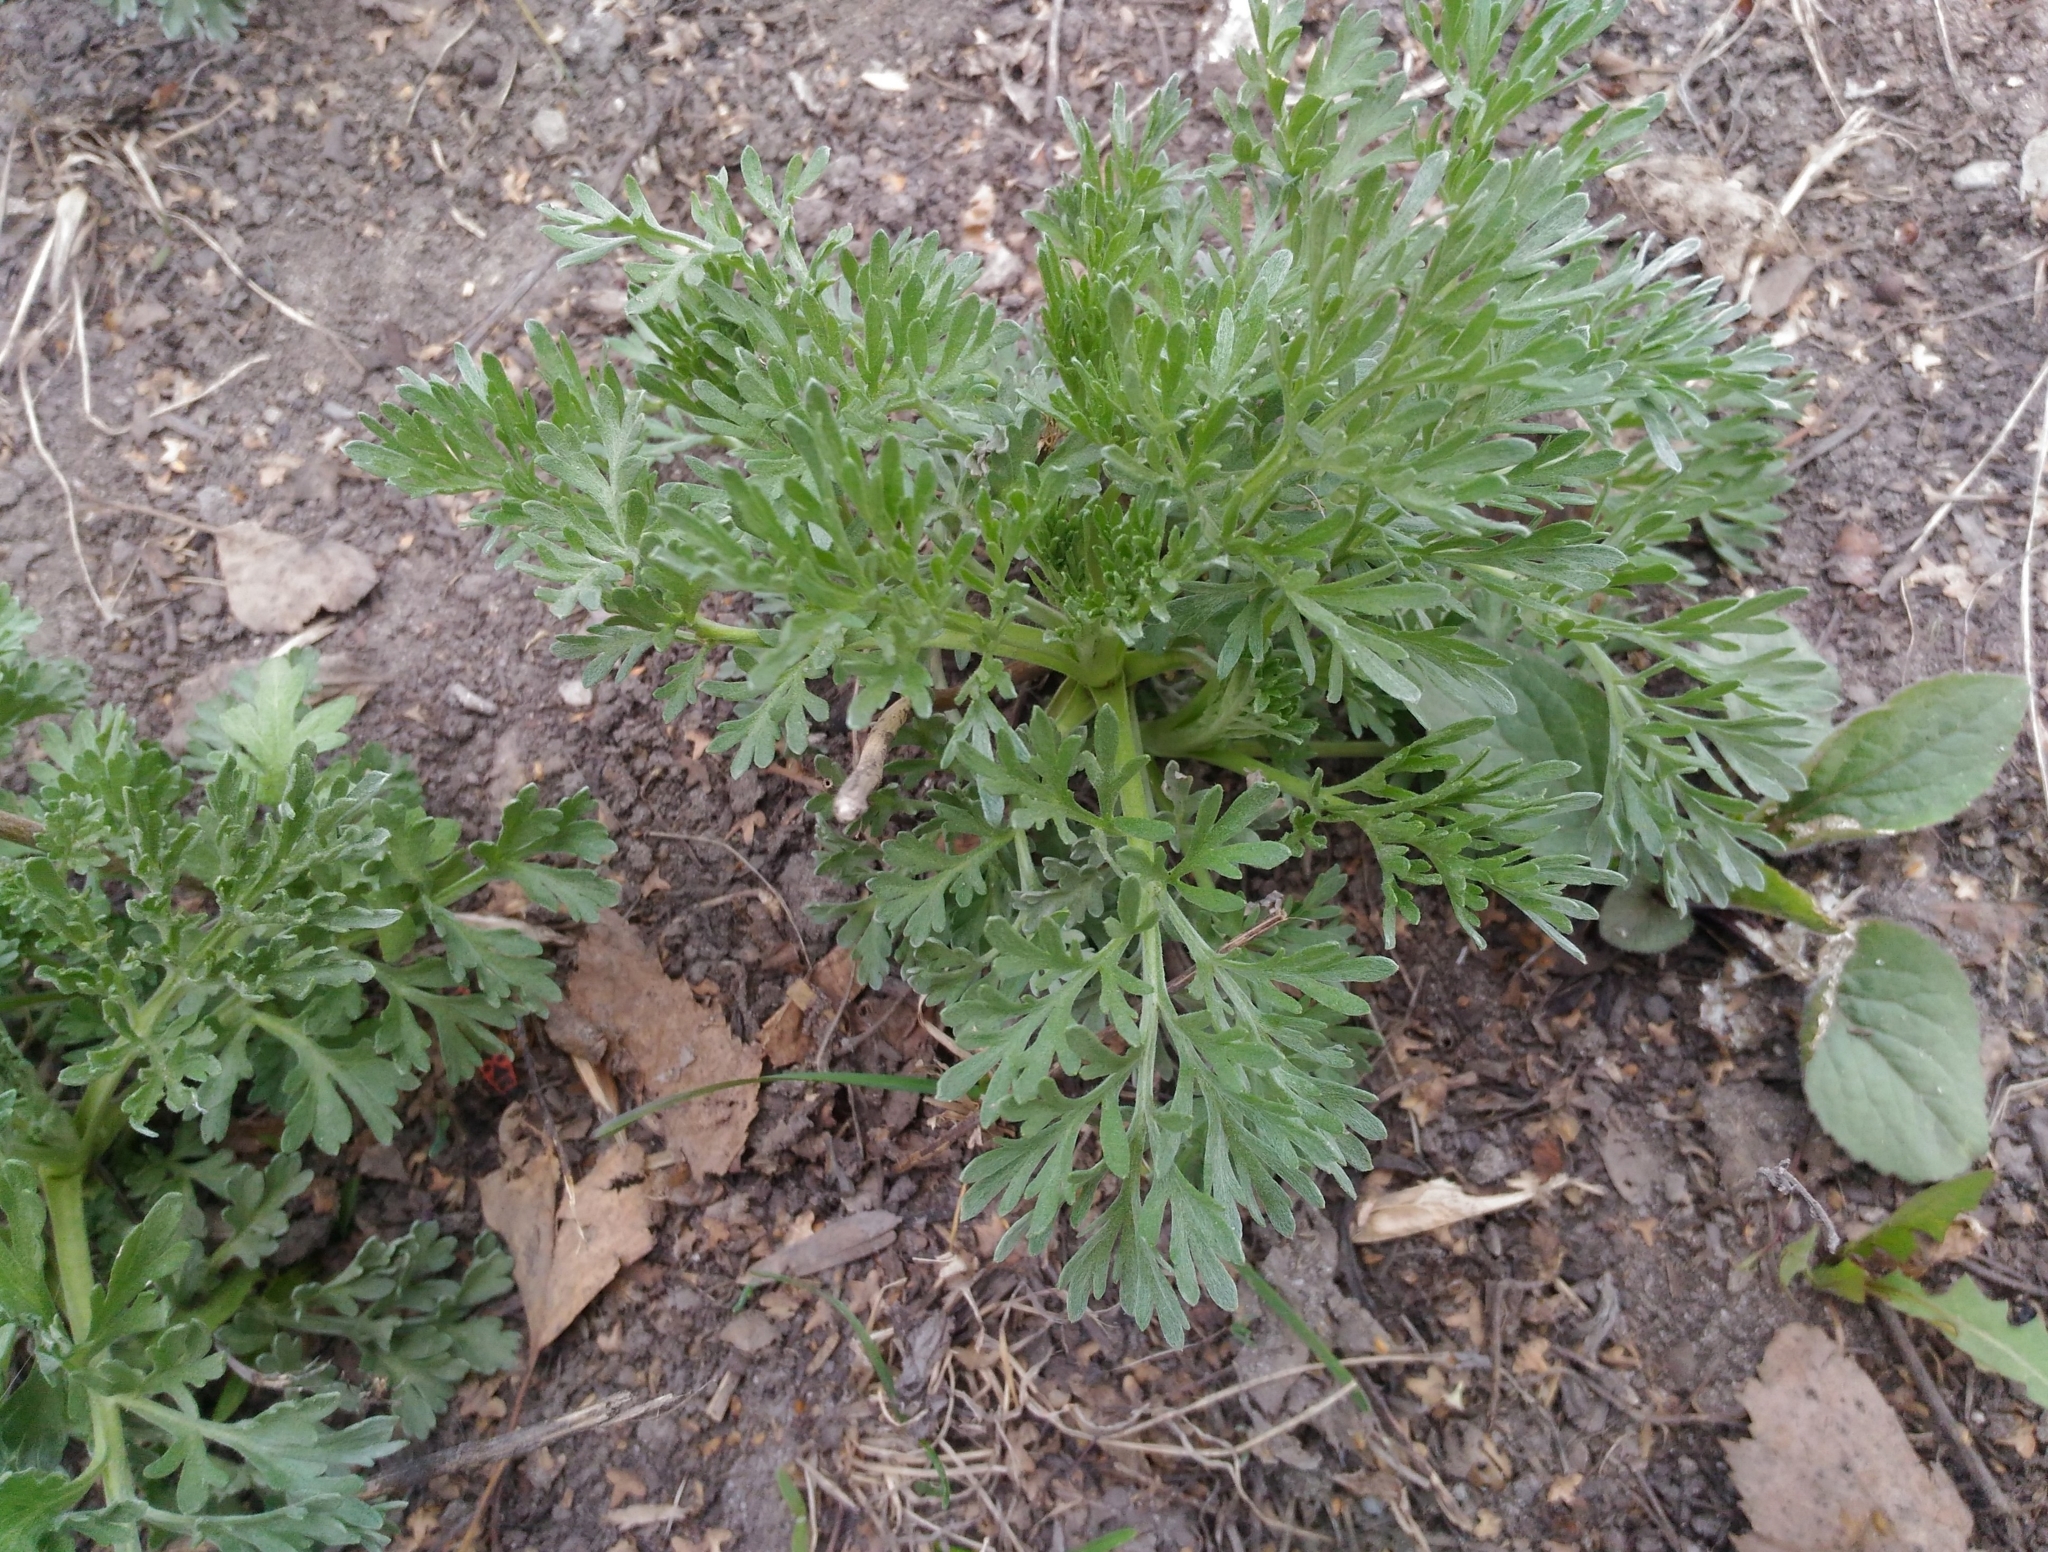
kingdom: Plantae
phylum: Tracheophyta
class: Magnoliopsida
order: Asterales
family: Asteraceae
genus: Artemisia
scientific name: Artemisia absinthium
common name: Wormwood
